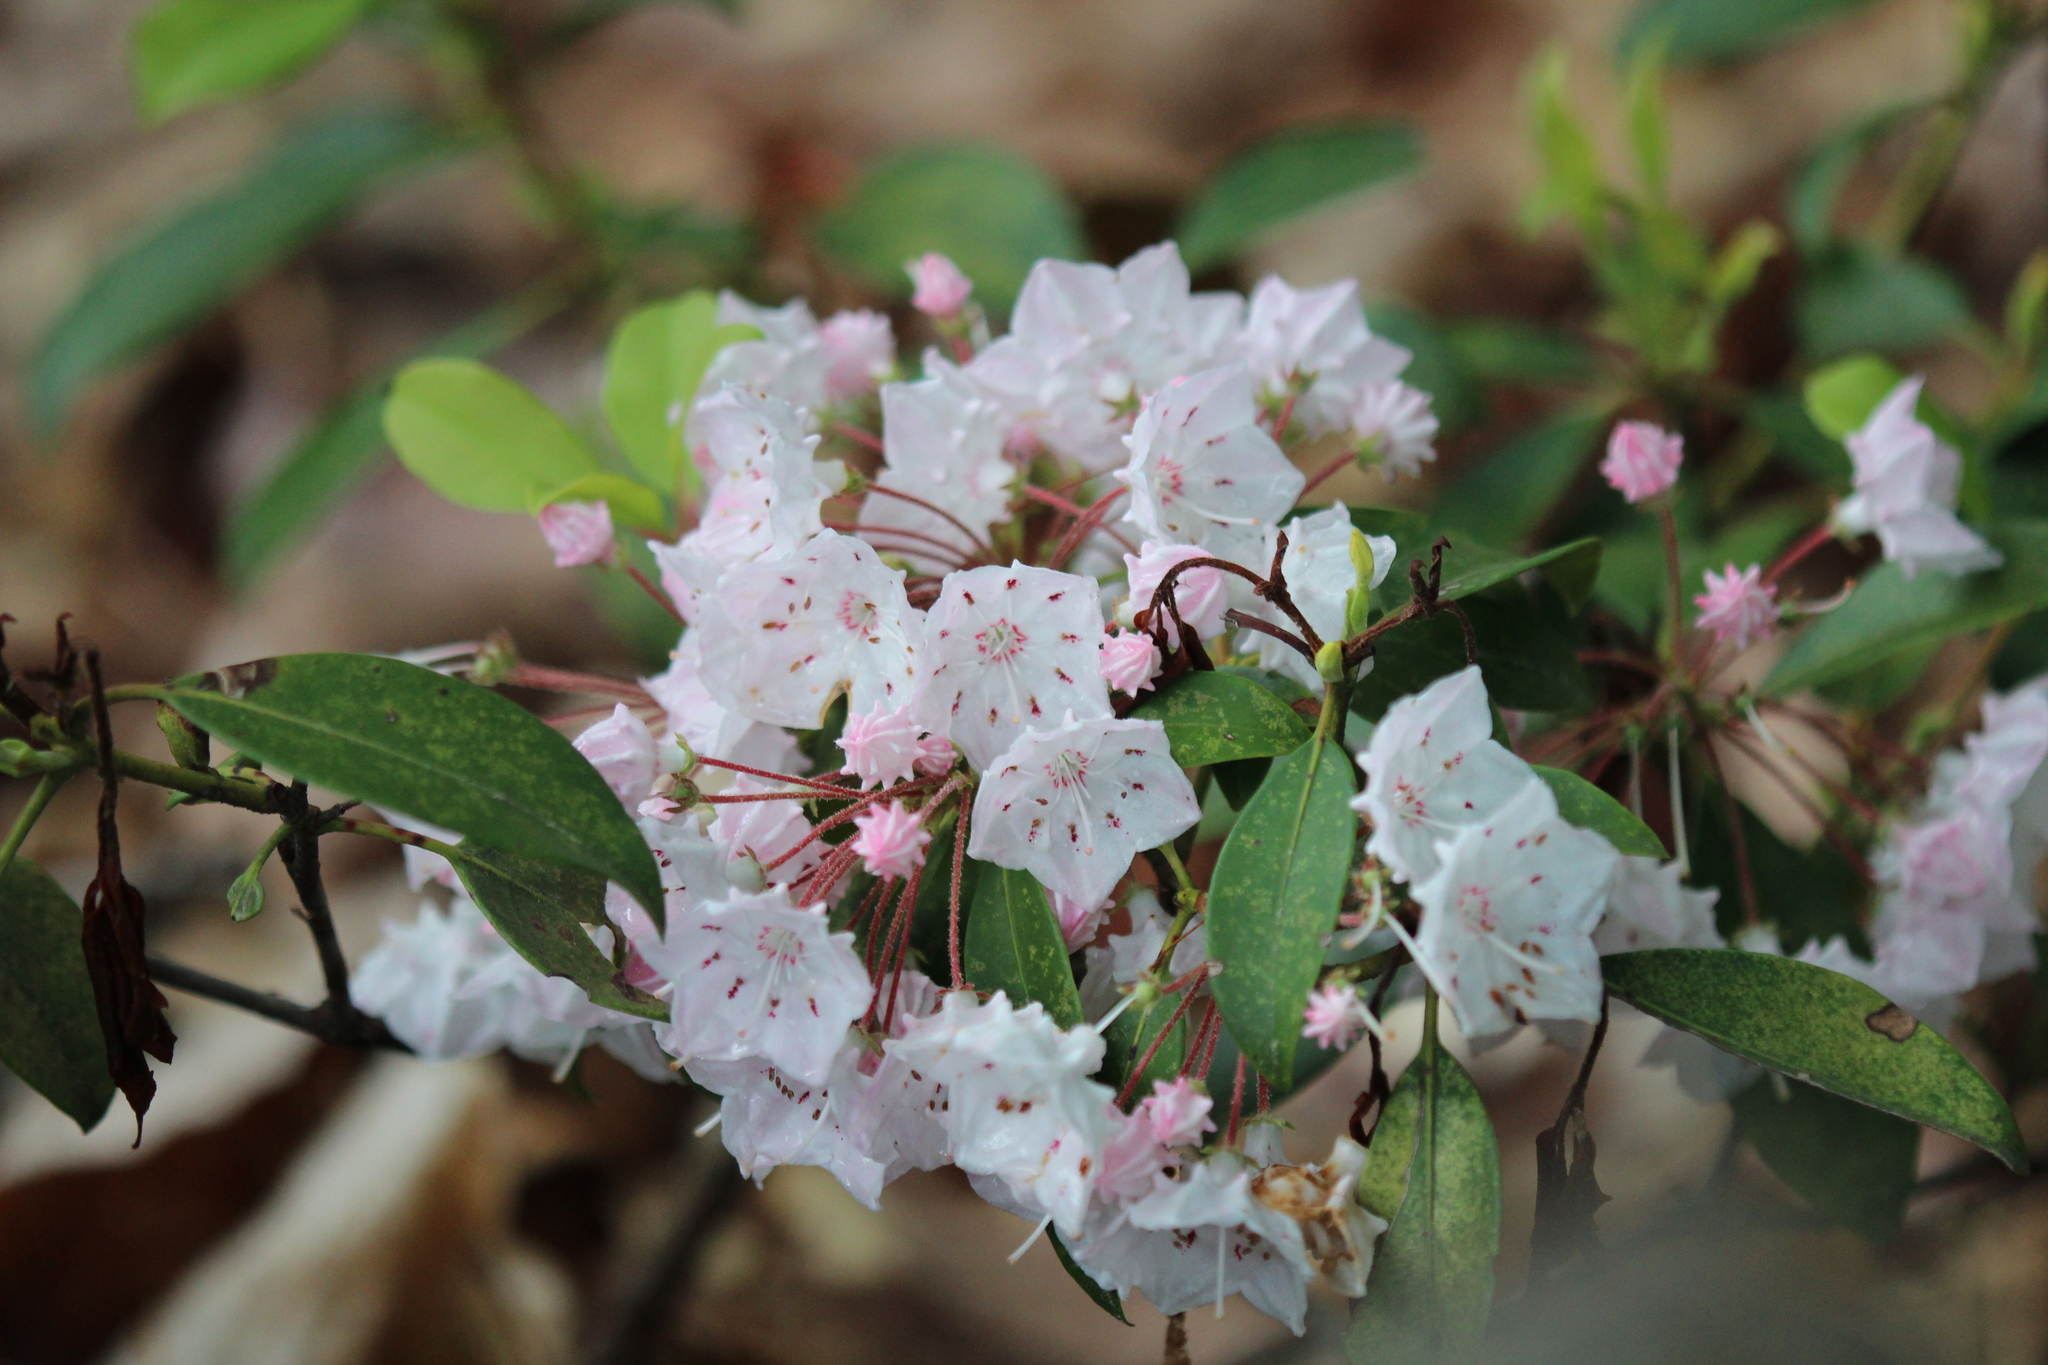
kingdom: Plantae
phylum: Tracheophyta
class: Magnoliopsida
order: Ericales
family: Ericaceae
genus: Kalmia
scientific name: Kalmia latifolia
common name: Mountain-laurel
